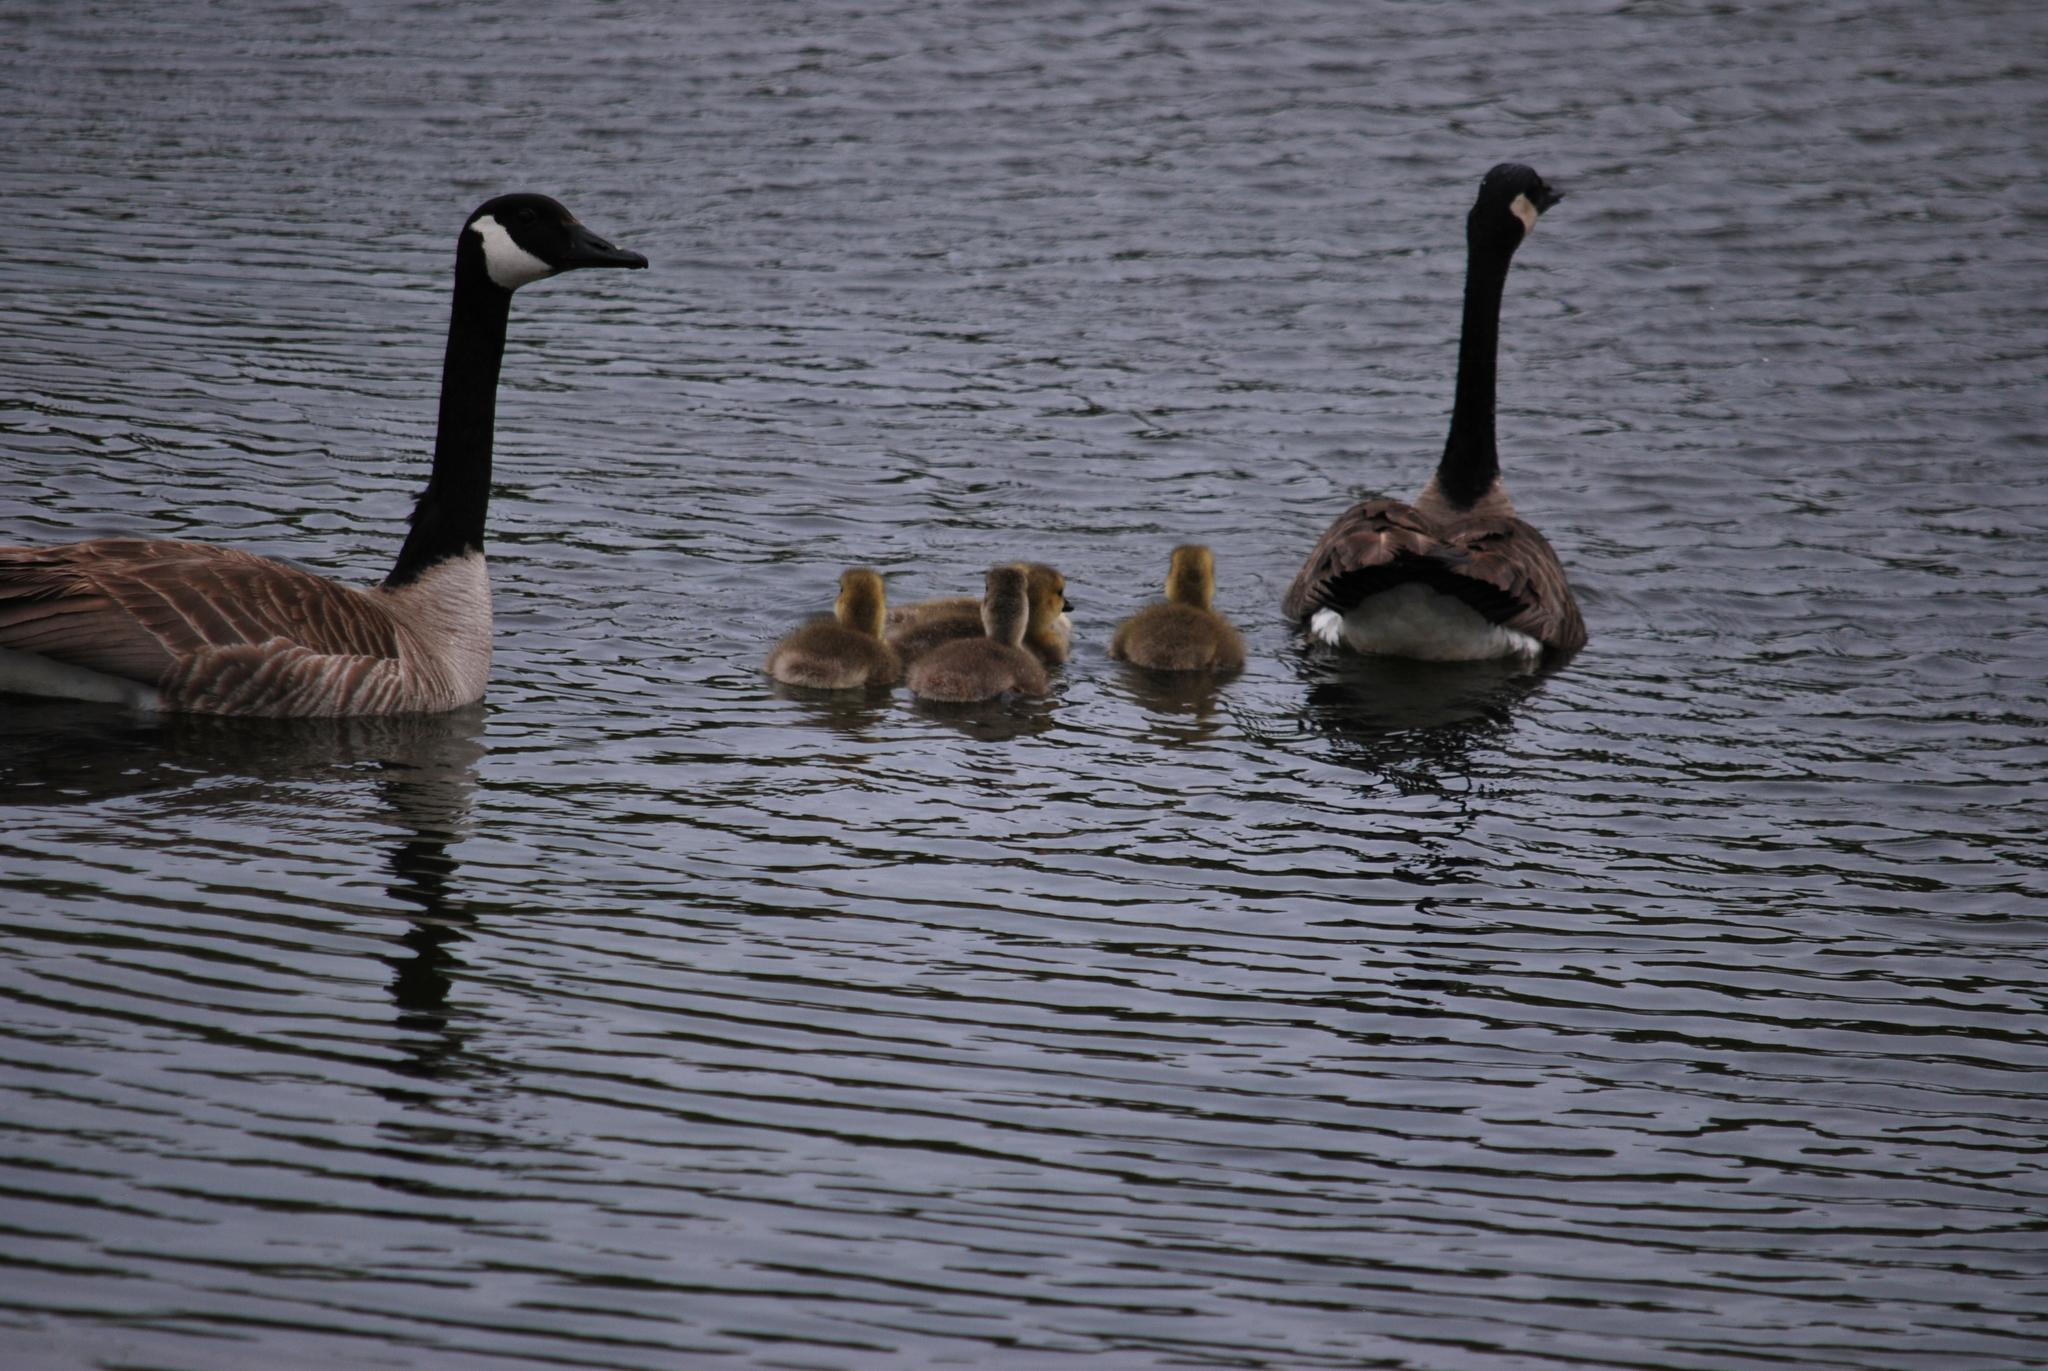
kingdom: Animalia
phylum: Chordata
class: Aves
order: Anseriformes
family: Anatidae
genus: Branta
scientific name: Branta canadensis
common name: Canada goose
